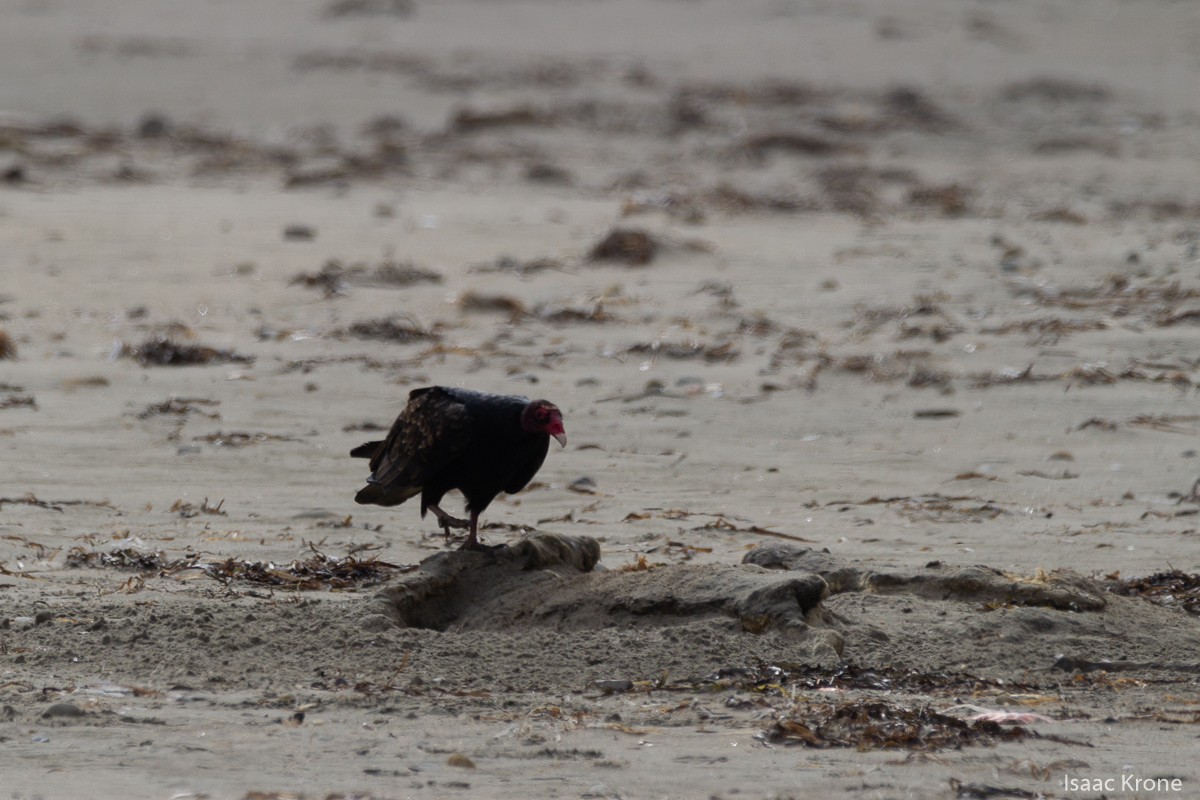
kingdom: Animalia
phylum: Chordata
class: Aves
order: Accipitriformes
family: Cathartidae
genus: Cathartes
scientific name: Cathartes aura
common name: Turkey vulture
